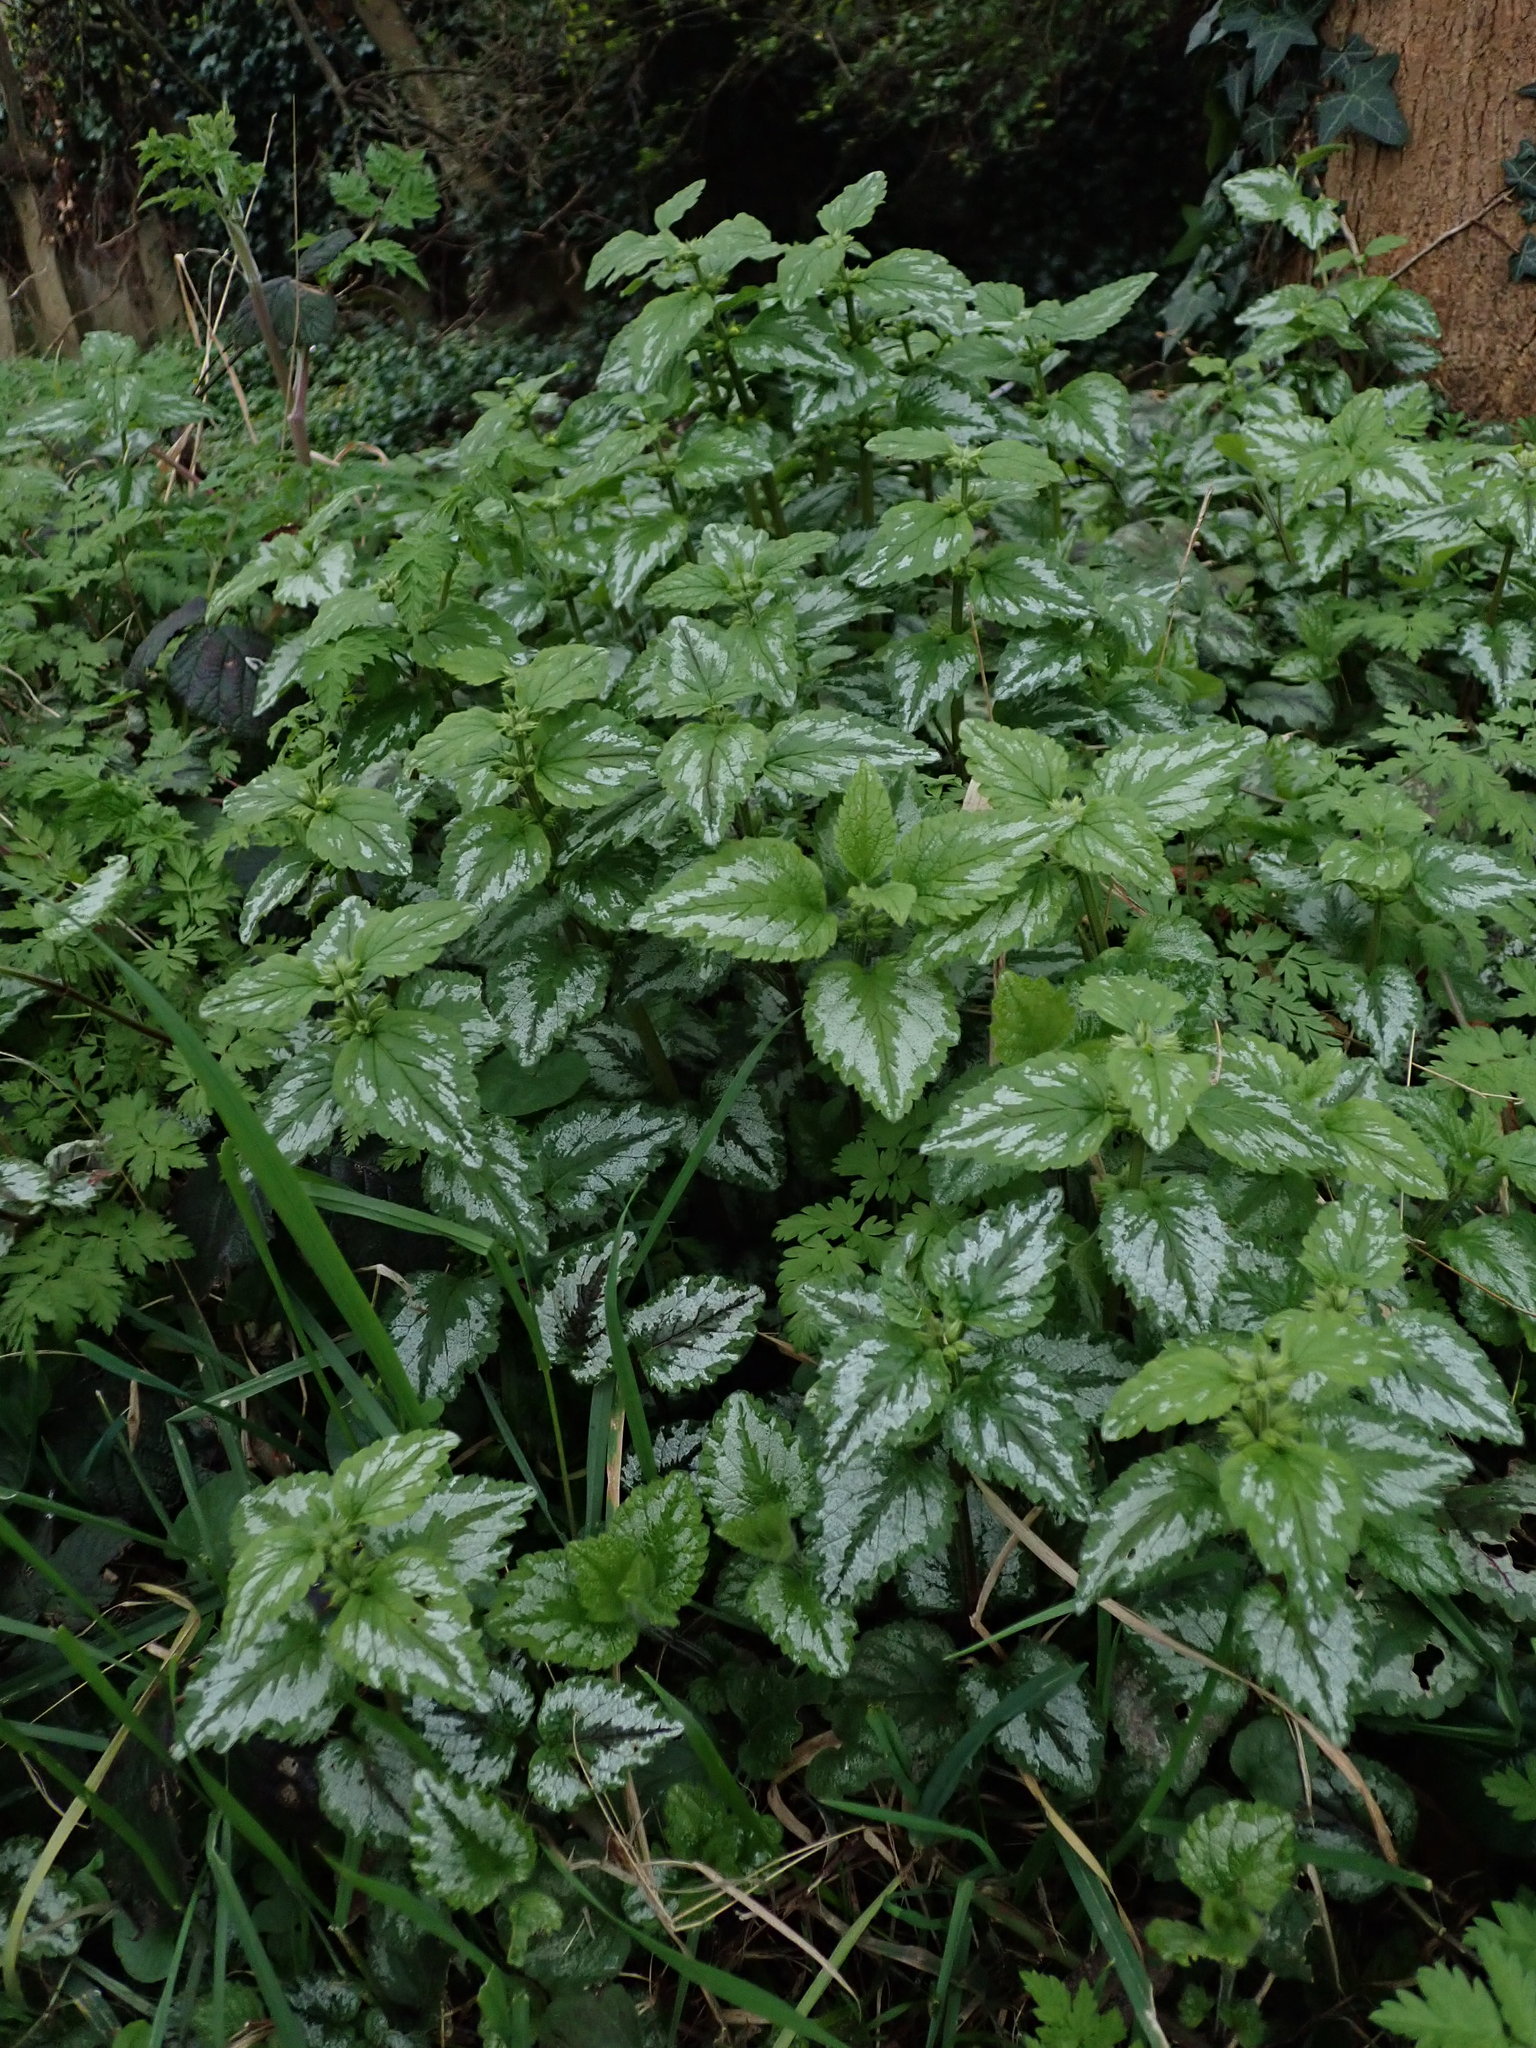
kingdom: Plantae
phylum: Tracheophyta
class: Magnoliopsida
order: Lamiales
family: Lamiaceae
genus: Lamium
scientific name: Lamium galeobdolon
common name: Yellow archangel
